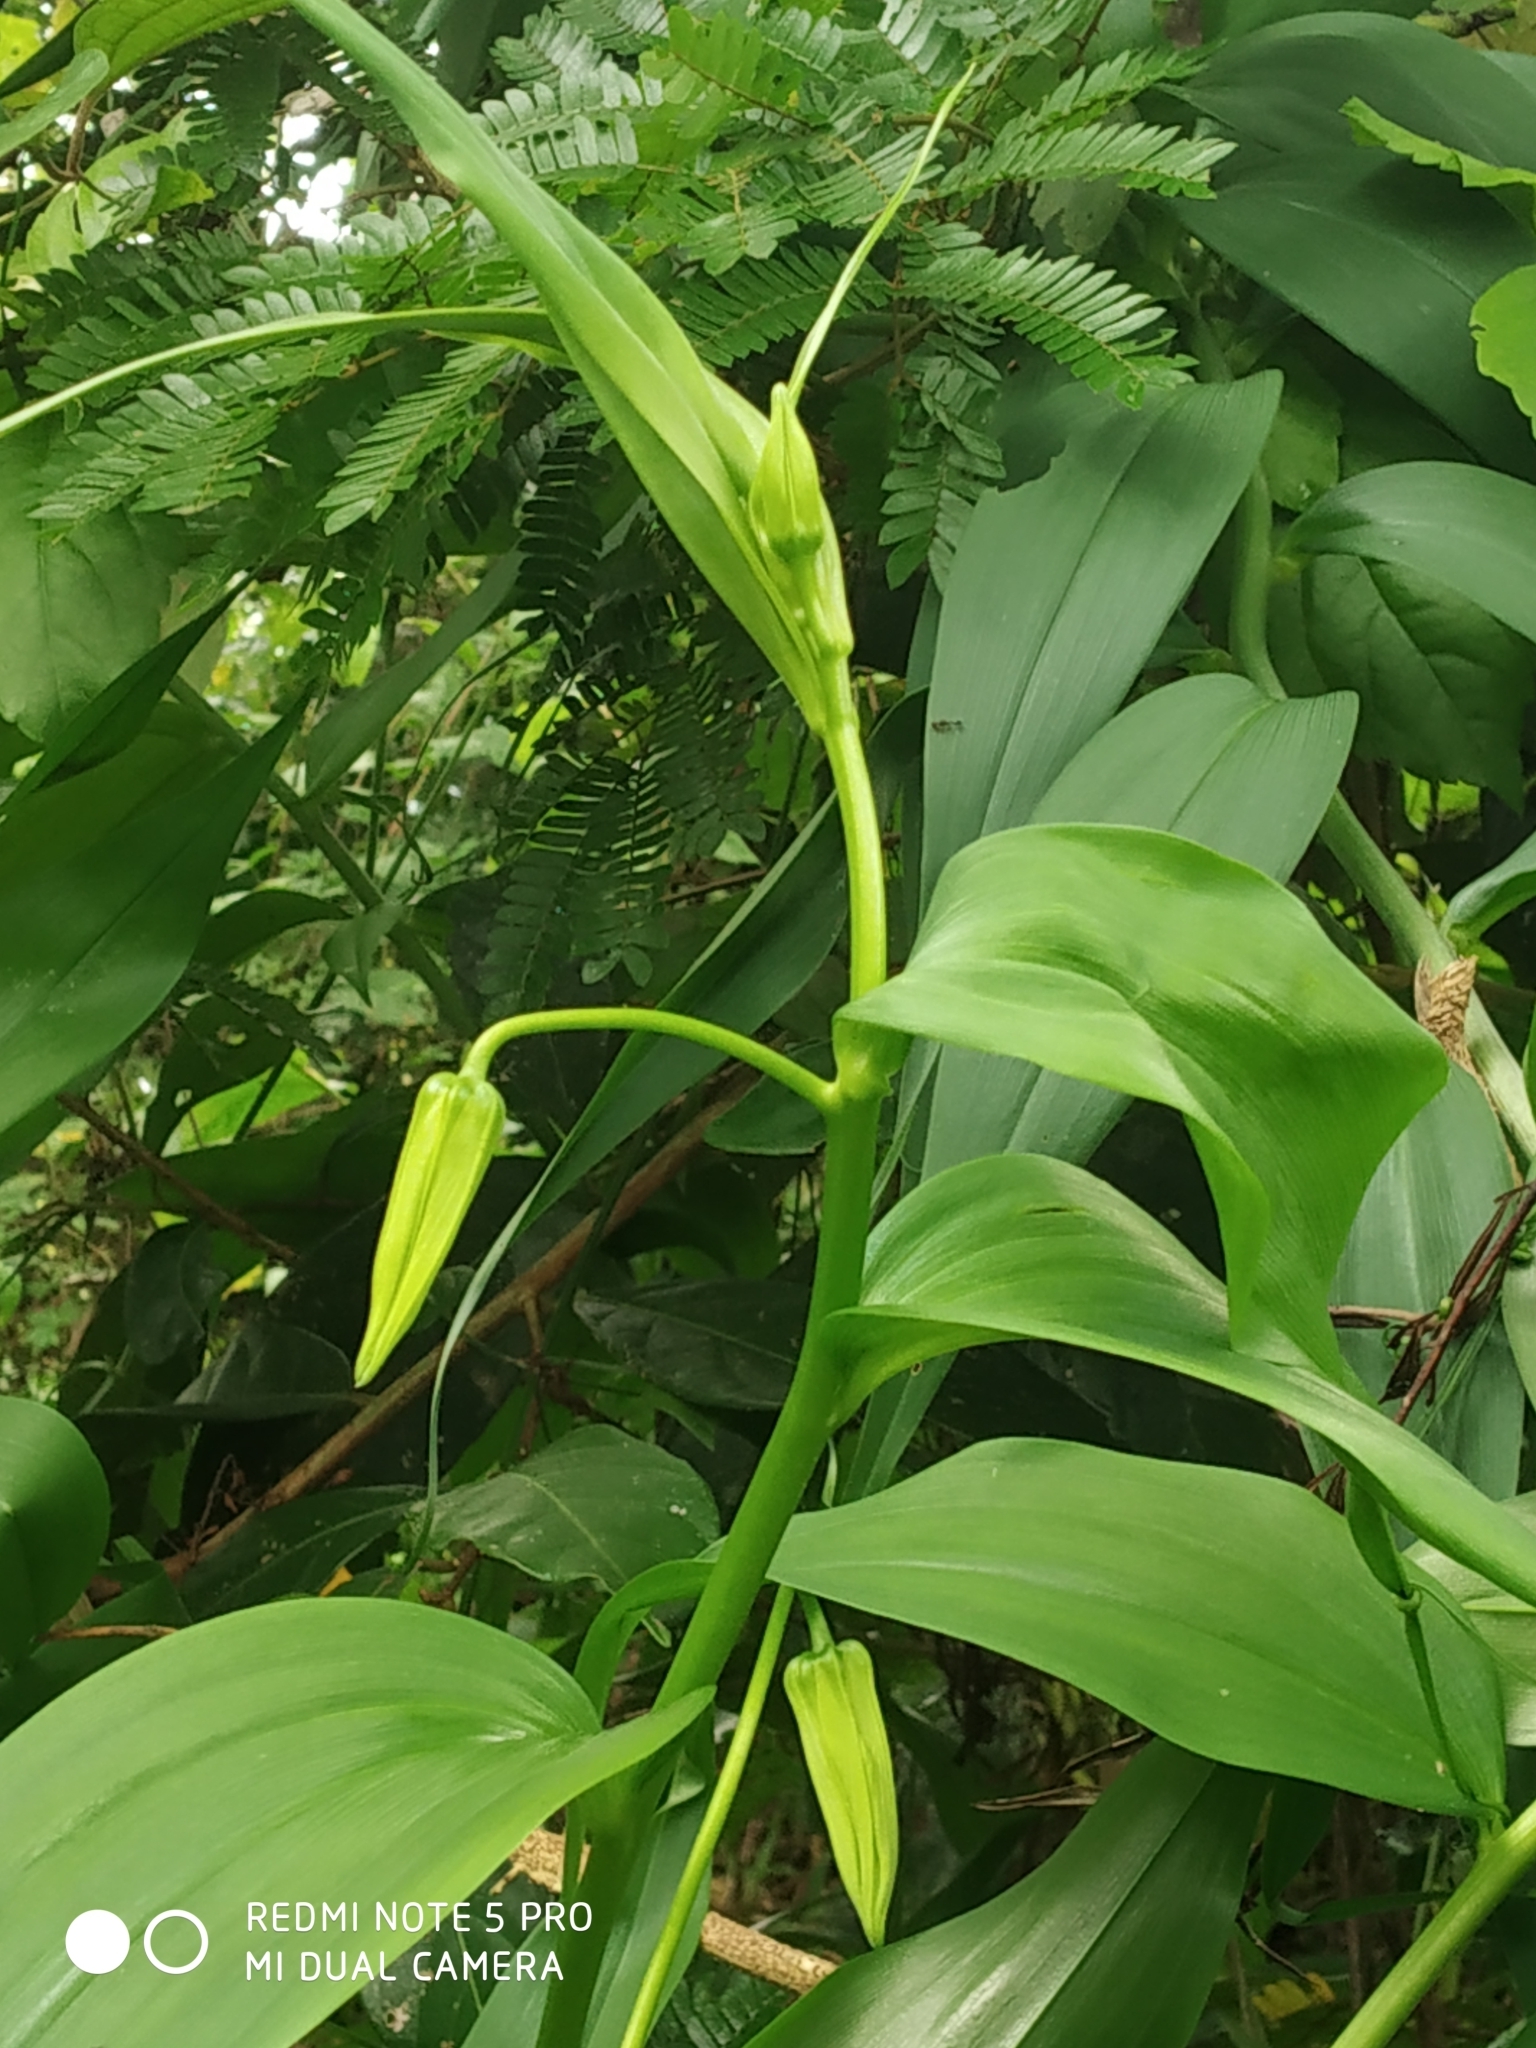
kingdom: Plantae
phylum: Tracheophyta
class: Liliopsida
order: Liliales
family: Colchicaceae
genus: Gloriosa
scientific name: Gloriosa superba
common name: Flame lily
